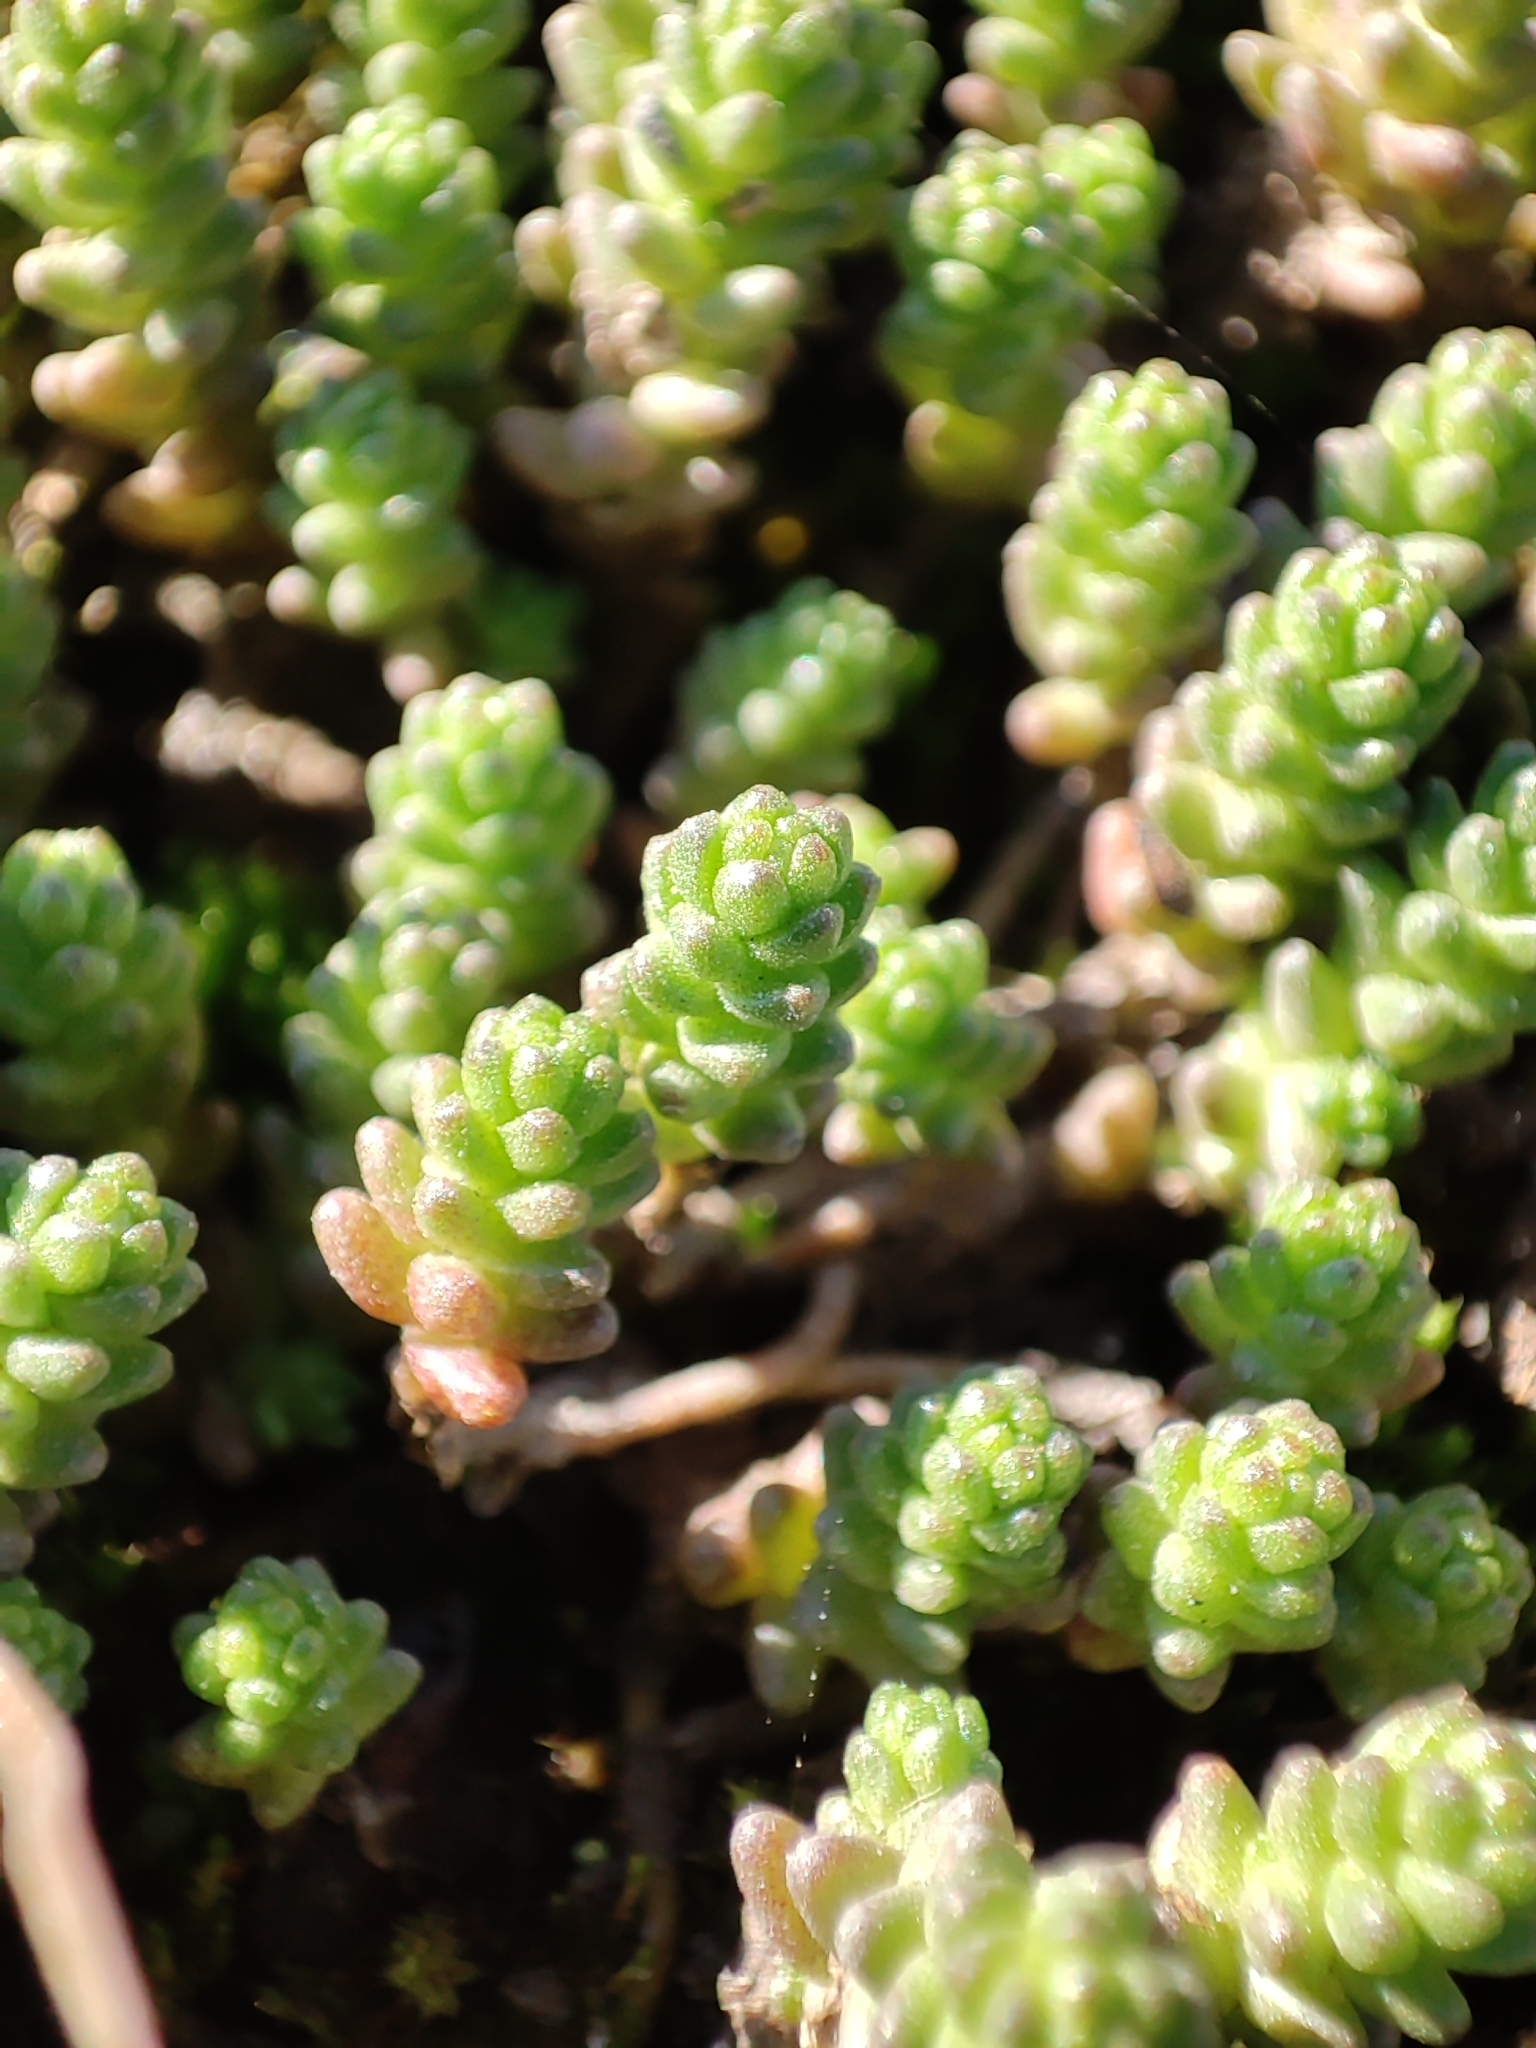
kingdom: Plantae
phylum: Tracheophyta
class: Magnoliopsida
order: Saxifragales
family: Crassulaceae
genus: Sedum
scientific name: Sedum acre
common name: Biting stonecrop
